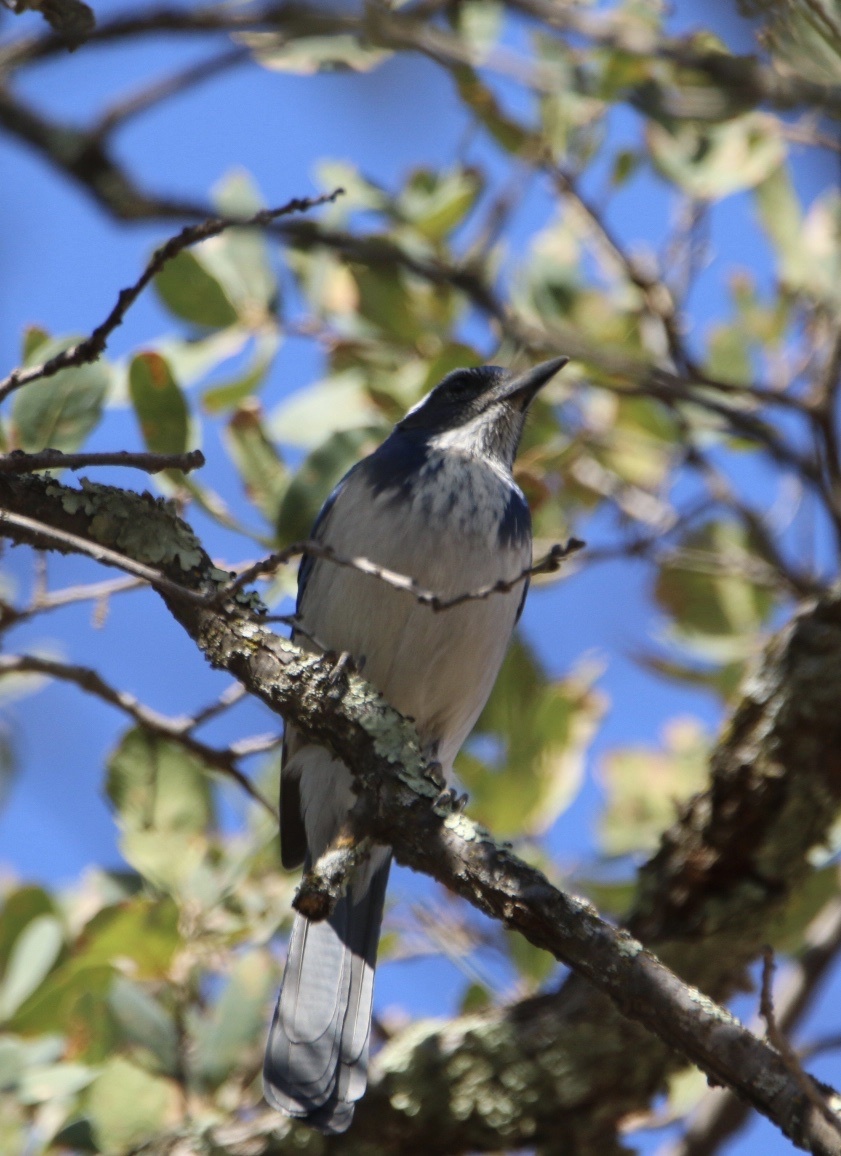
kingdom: Animalia
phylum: Chordata
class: Aves
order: Passeriformes
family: Corvidae
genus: Aphelocoma
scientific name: Aphelocoma californica
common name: California scrub-jay
